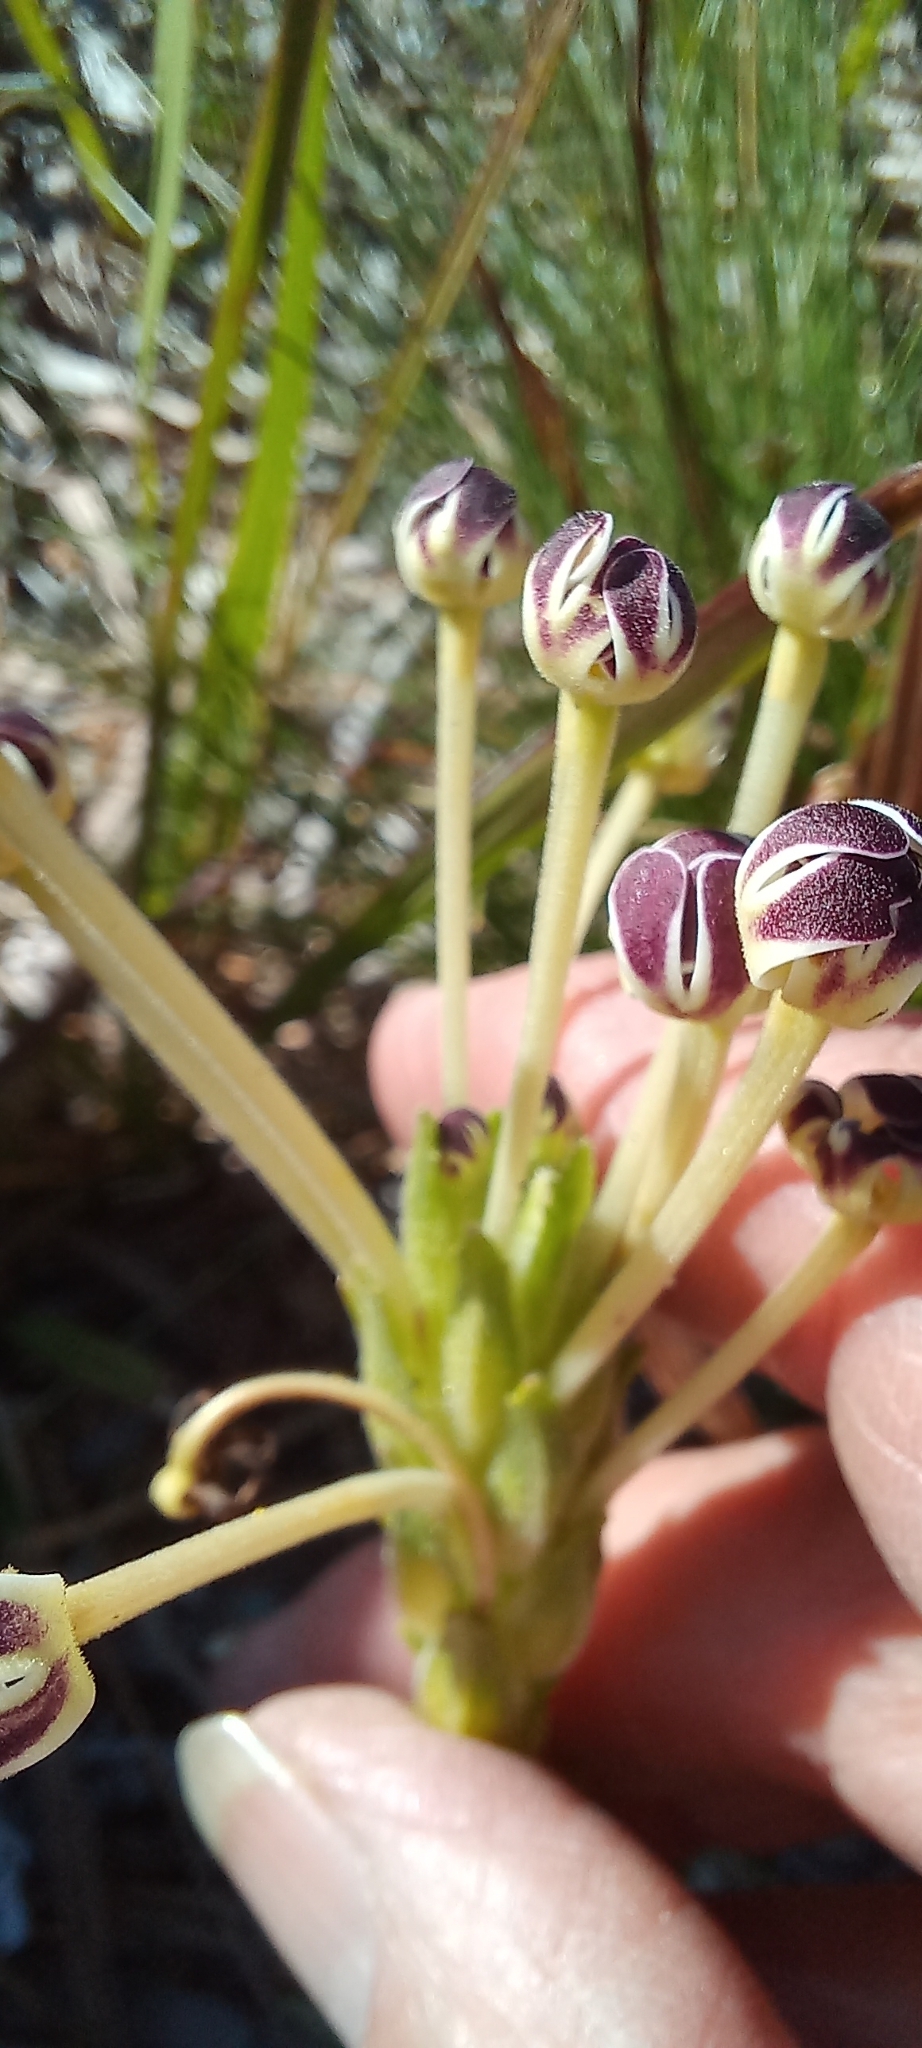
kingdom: Plantae
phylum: Tracheophyta
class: Magnoliopsida
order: Lamiales
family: Scrophulariaceae
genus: Zaluzianskya
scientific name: Zaluzianskya capensis
